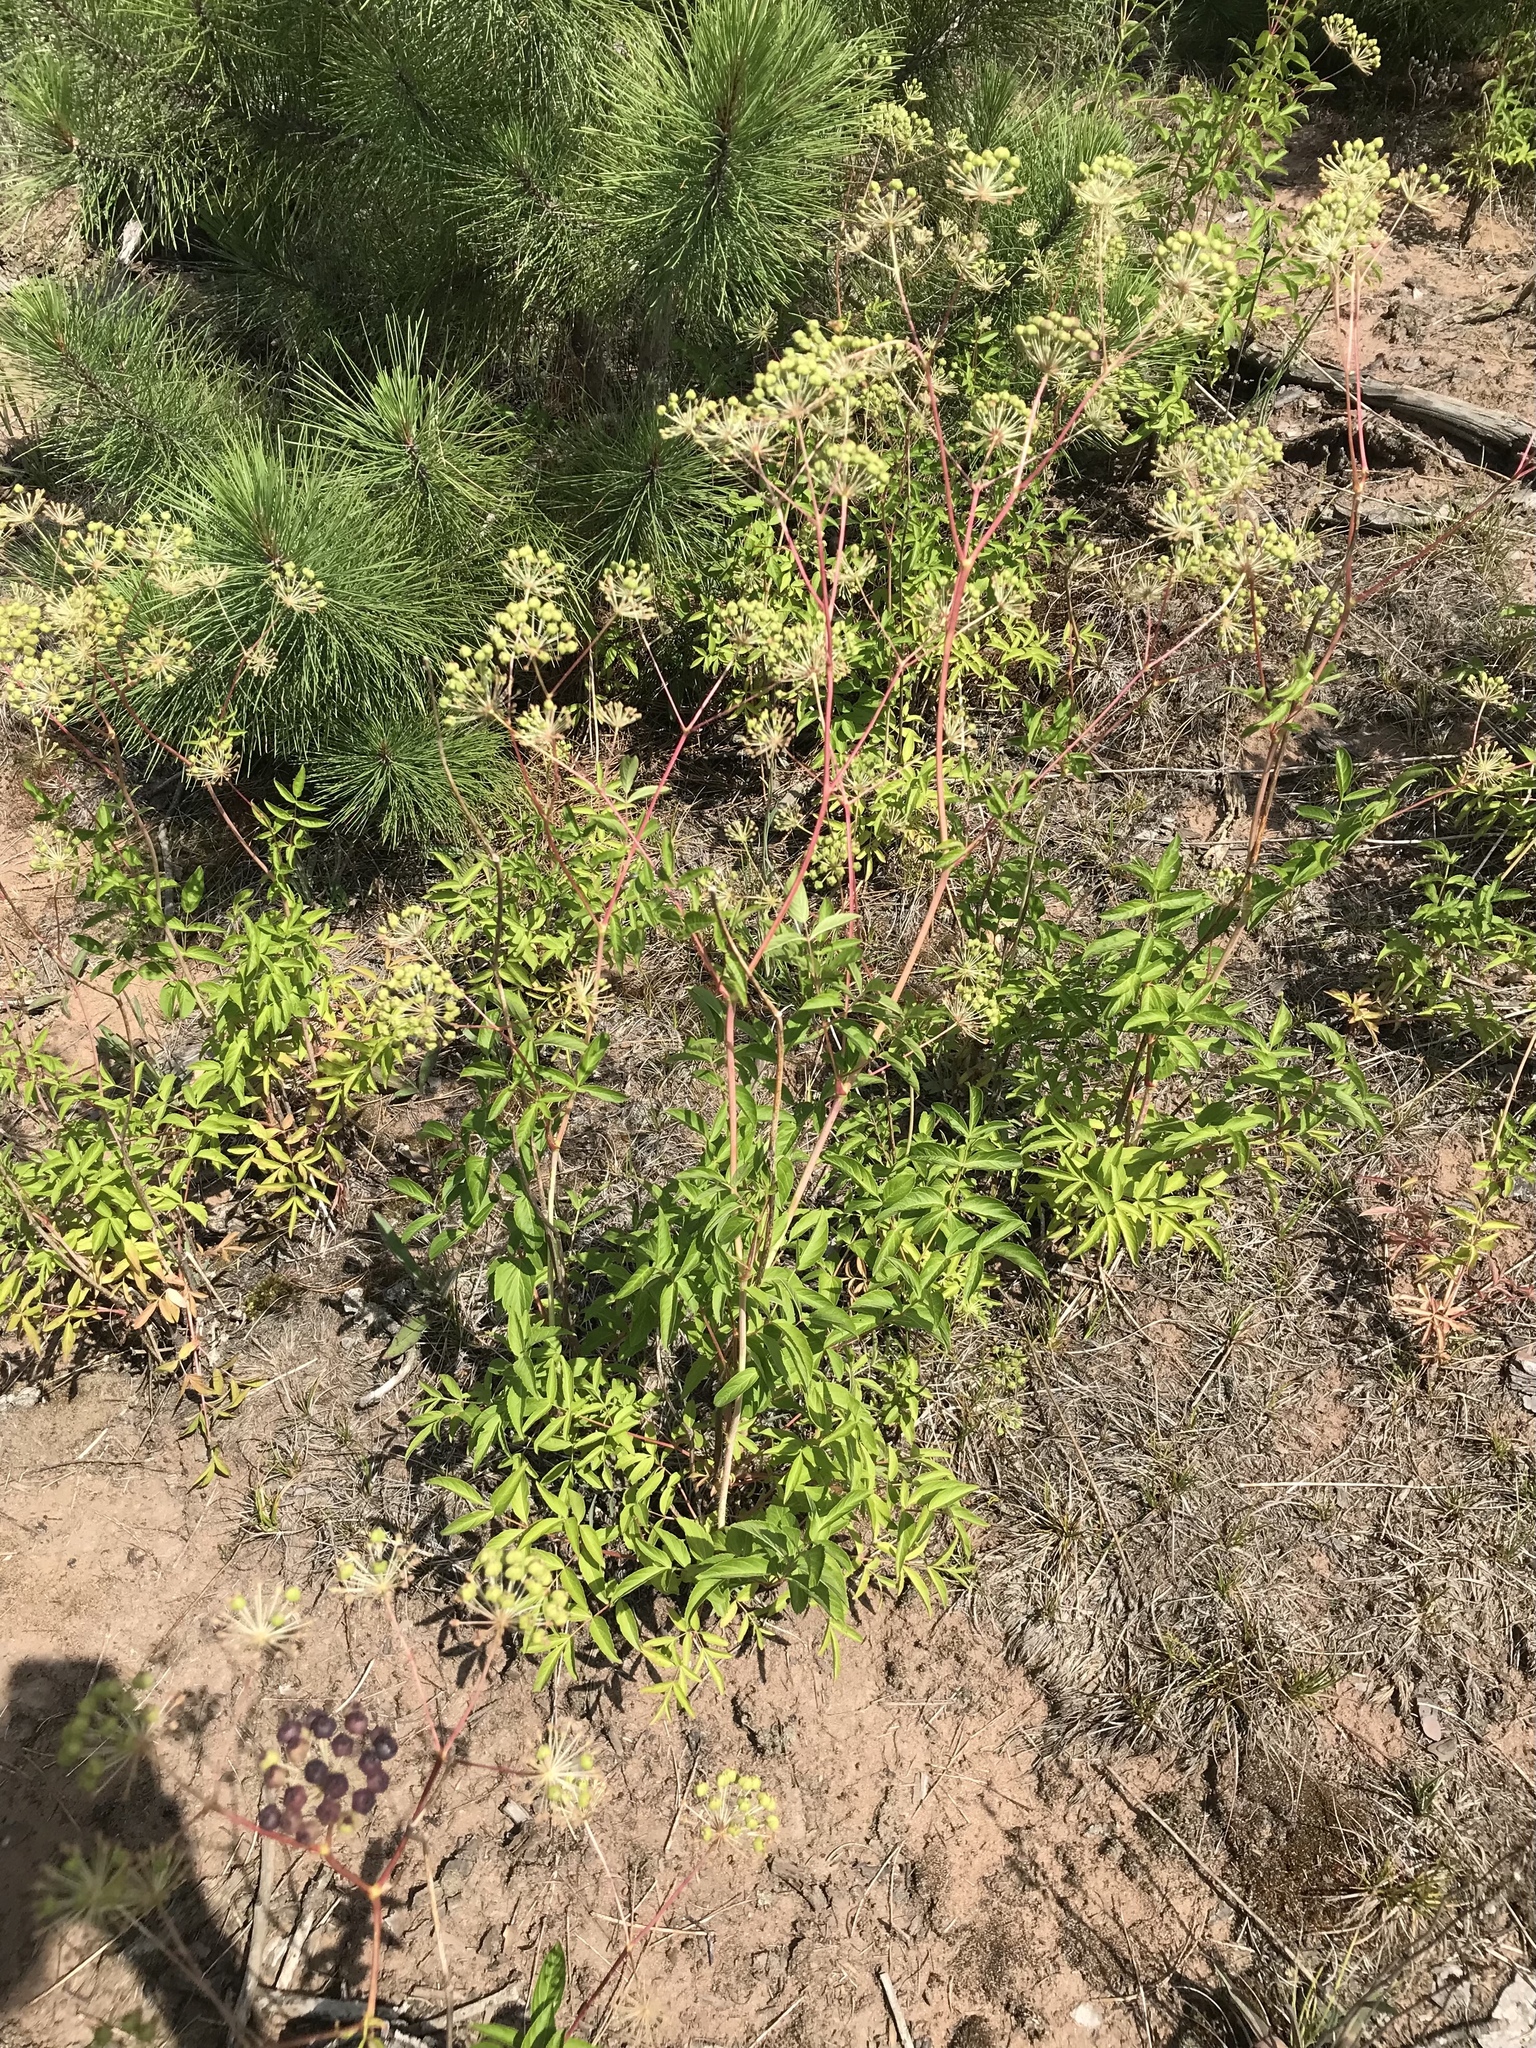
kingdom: Plantae
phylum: Tracheophyta
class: Magnoliopsida
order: Apiales
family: Araliaceae
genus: Aralia
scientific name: Aralia hispida
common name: Bristly sarsaparilla
